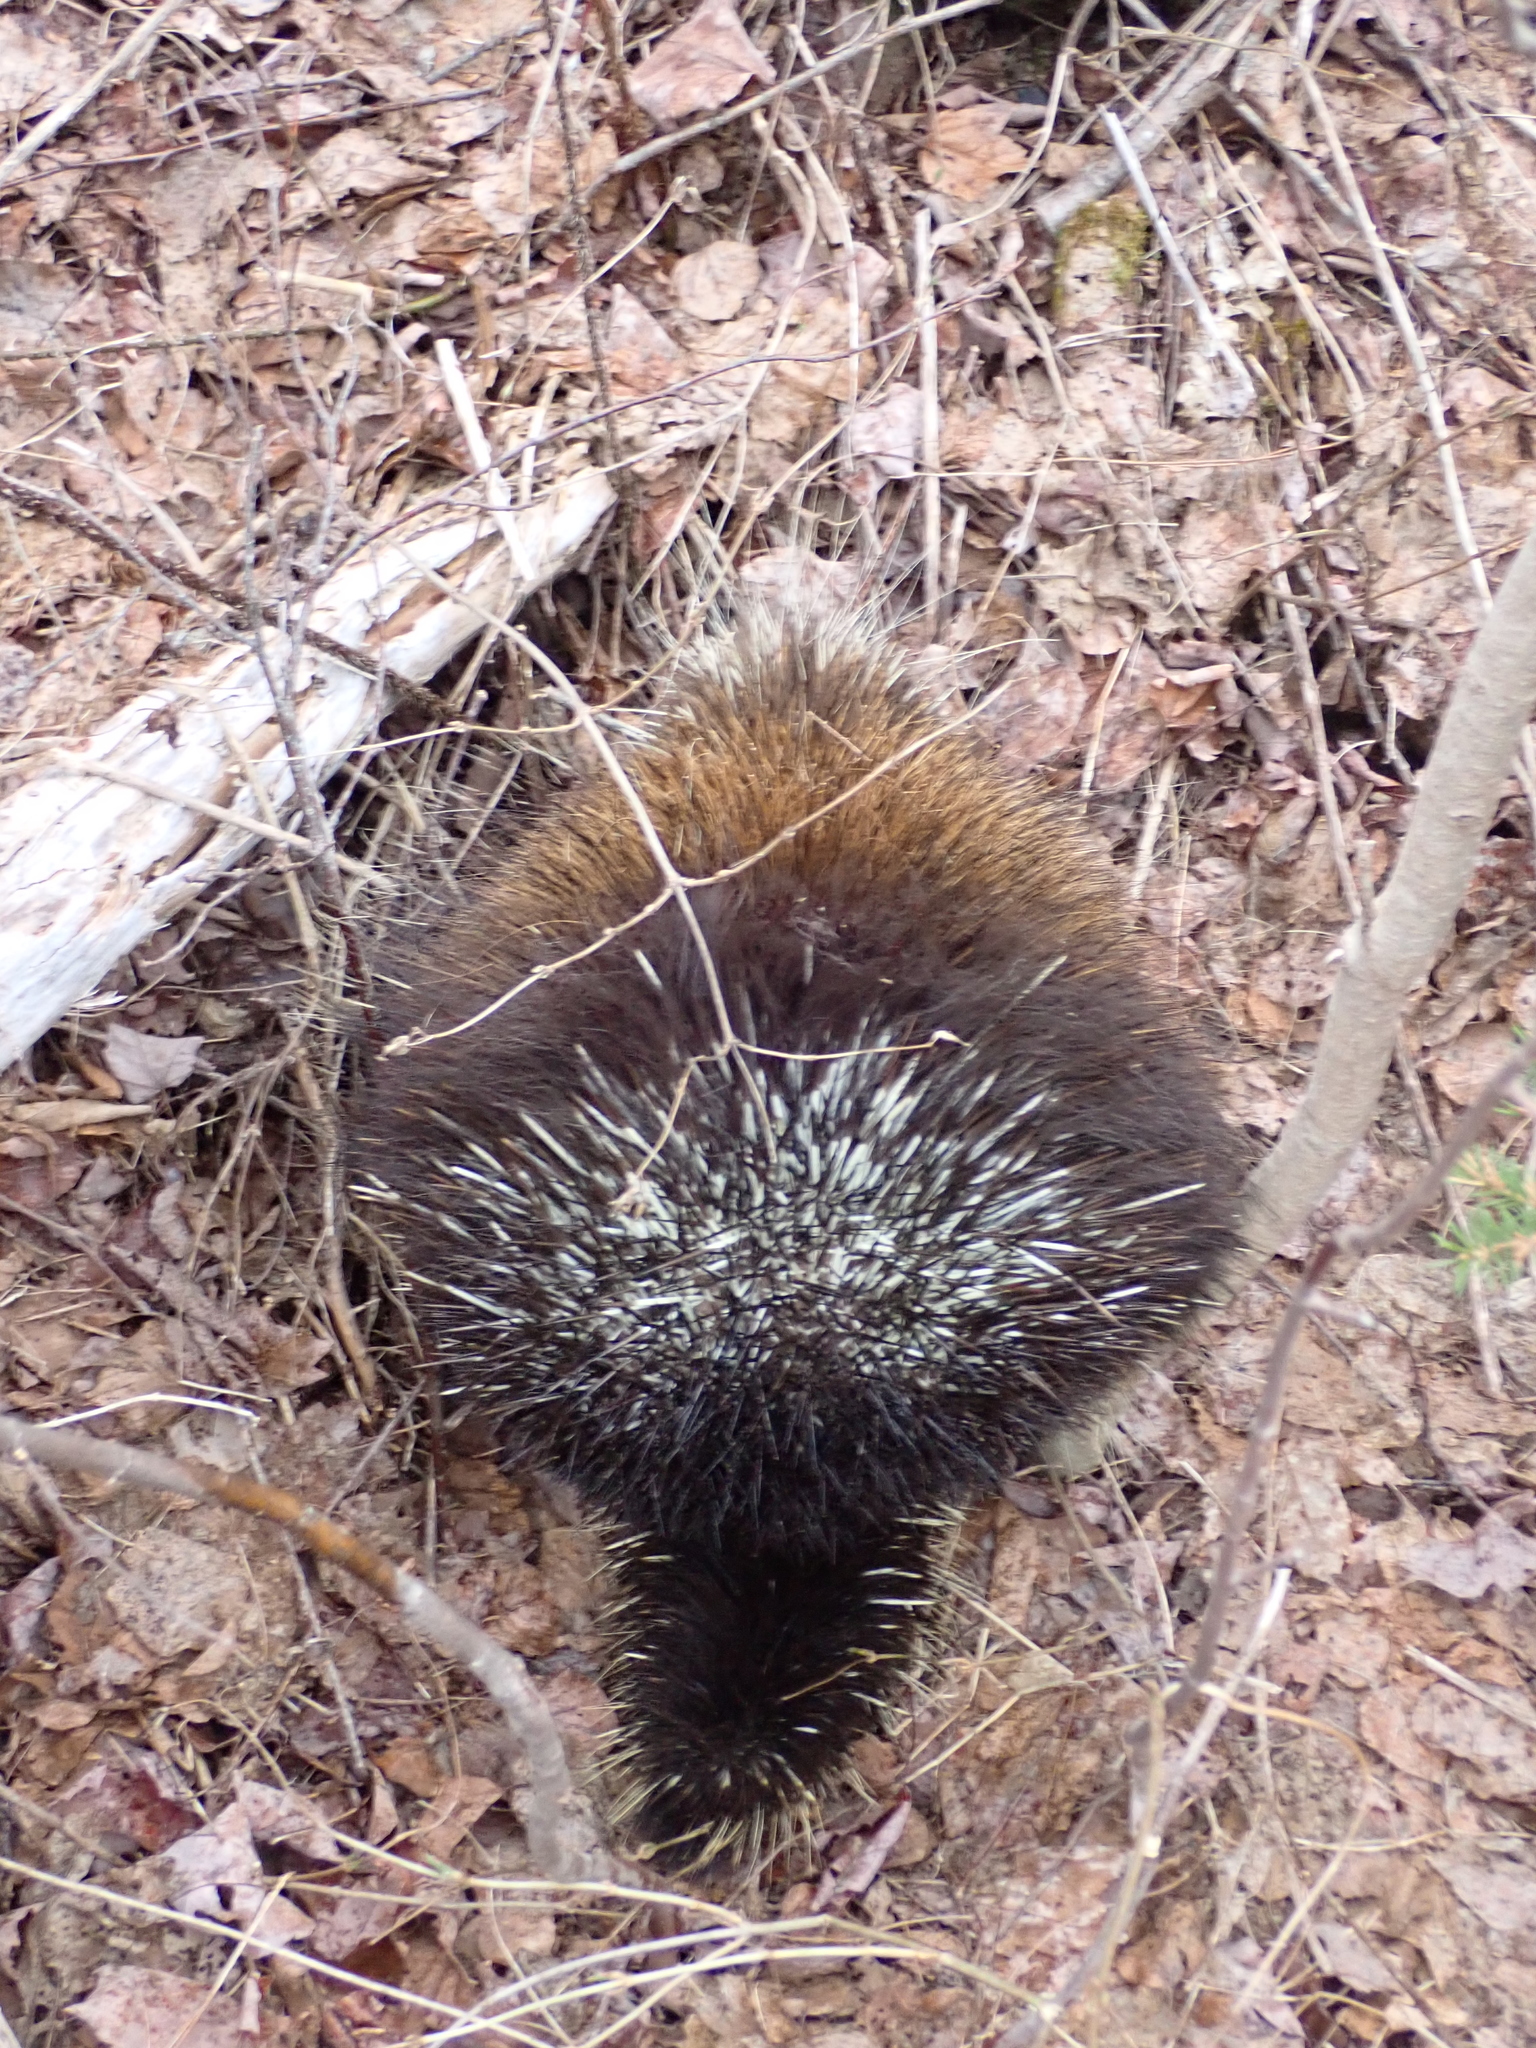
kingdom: Animalia
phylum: Chordata
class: Mammalia
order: Rodentia
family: Erethizontidae
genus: Erethizon
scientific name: Erethizon dorsatus
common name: North american porcupine
